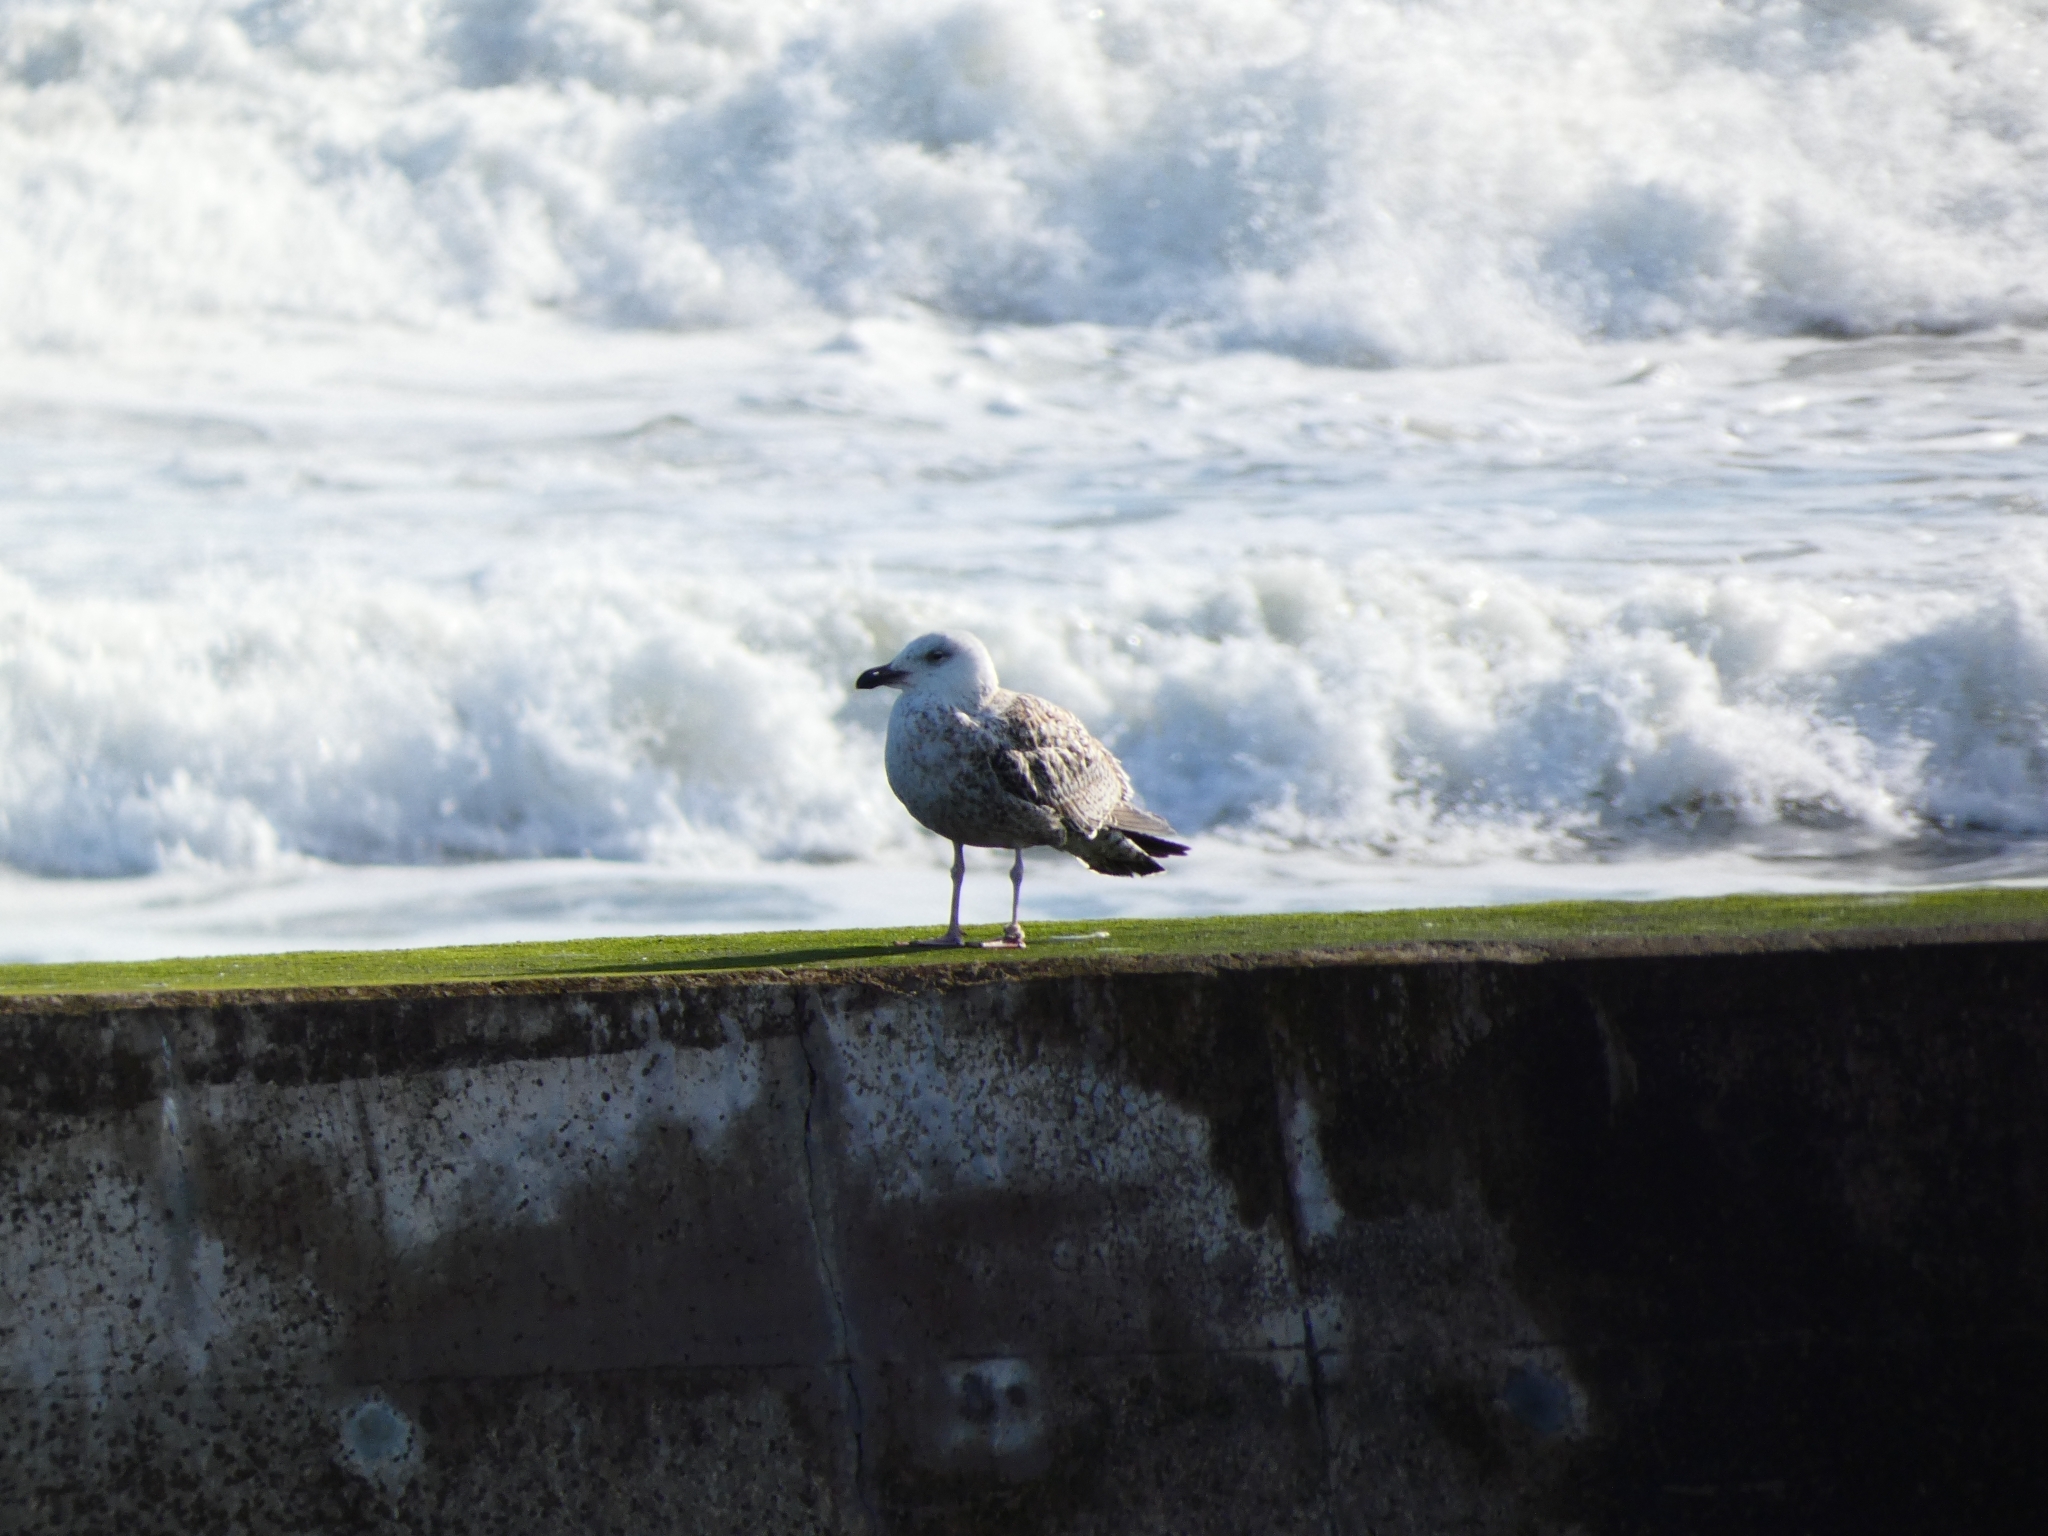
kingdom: Animalia
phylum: Chordata
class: Aves
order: Charadriiformes
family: Laridae
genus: Larus
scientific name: Larus marinus
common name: Great black-backed gull
